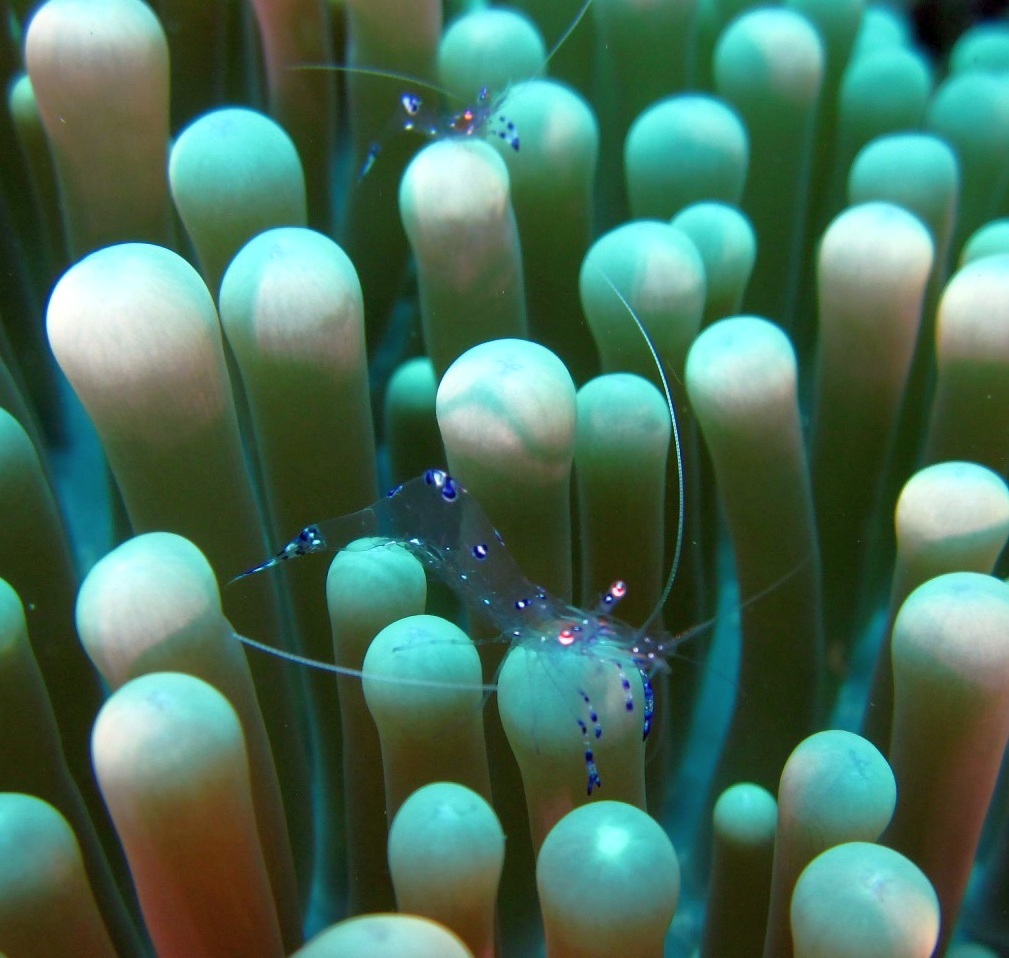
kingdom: Animalia
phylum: Arthropoda
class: Malacostraca
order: Decapoda
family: Palaemonidae
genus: Ancylomenes
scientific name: Ancylomenes sarasvati
